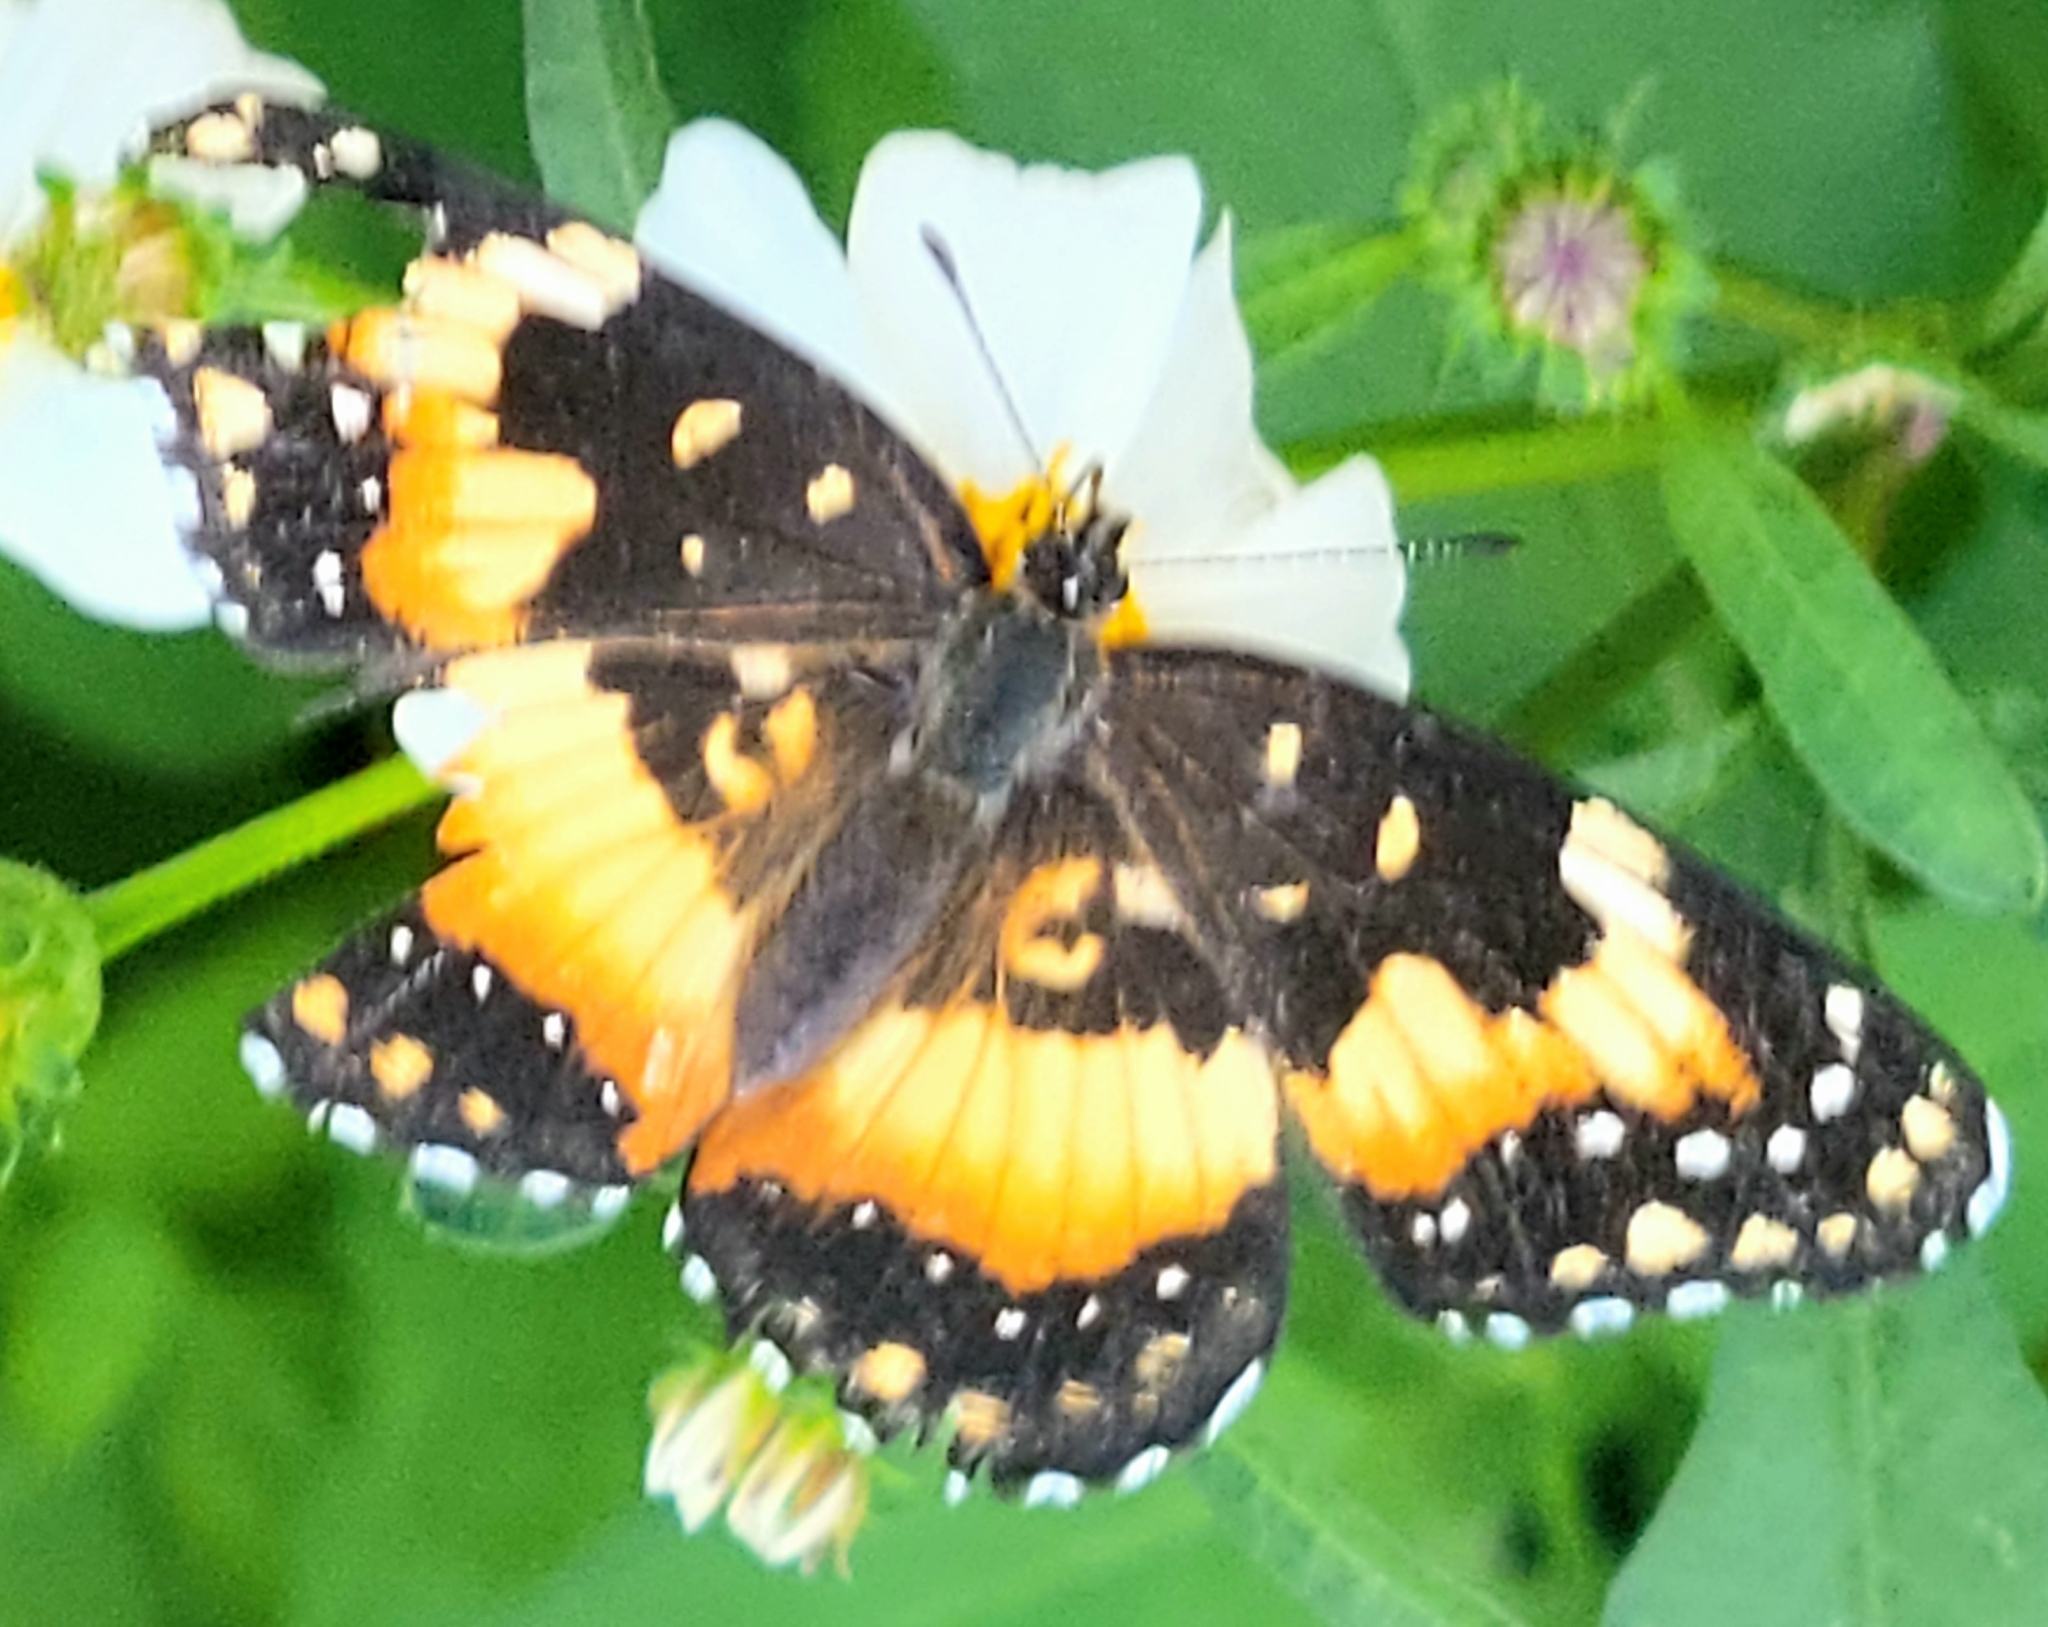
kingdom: Animalia
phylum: Arthropoda
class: Insecta
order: Lepidoptera
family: Nymphalidae
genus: Chlosyne
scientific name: Chlosyne lacinia
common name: Bordered patch
